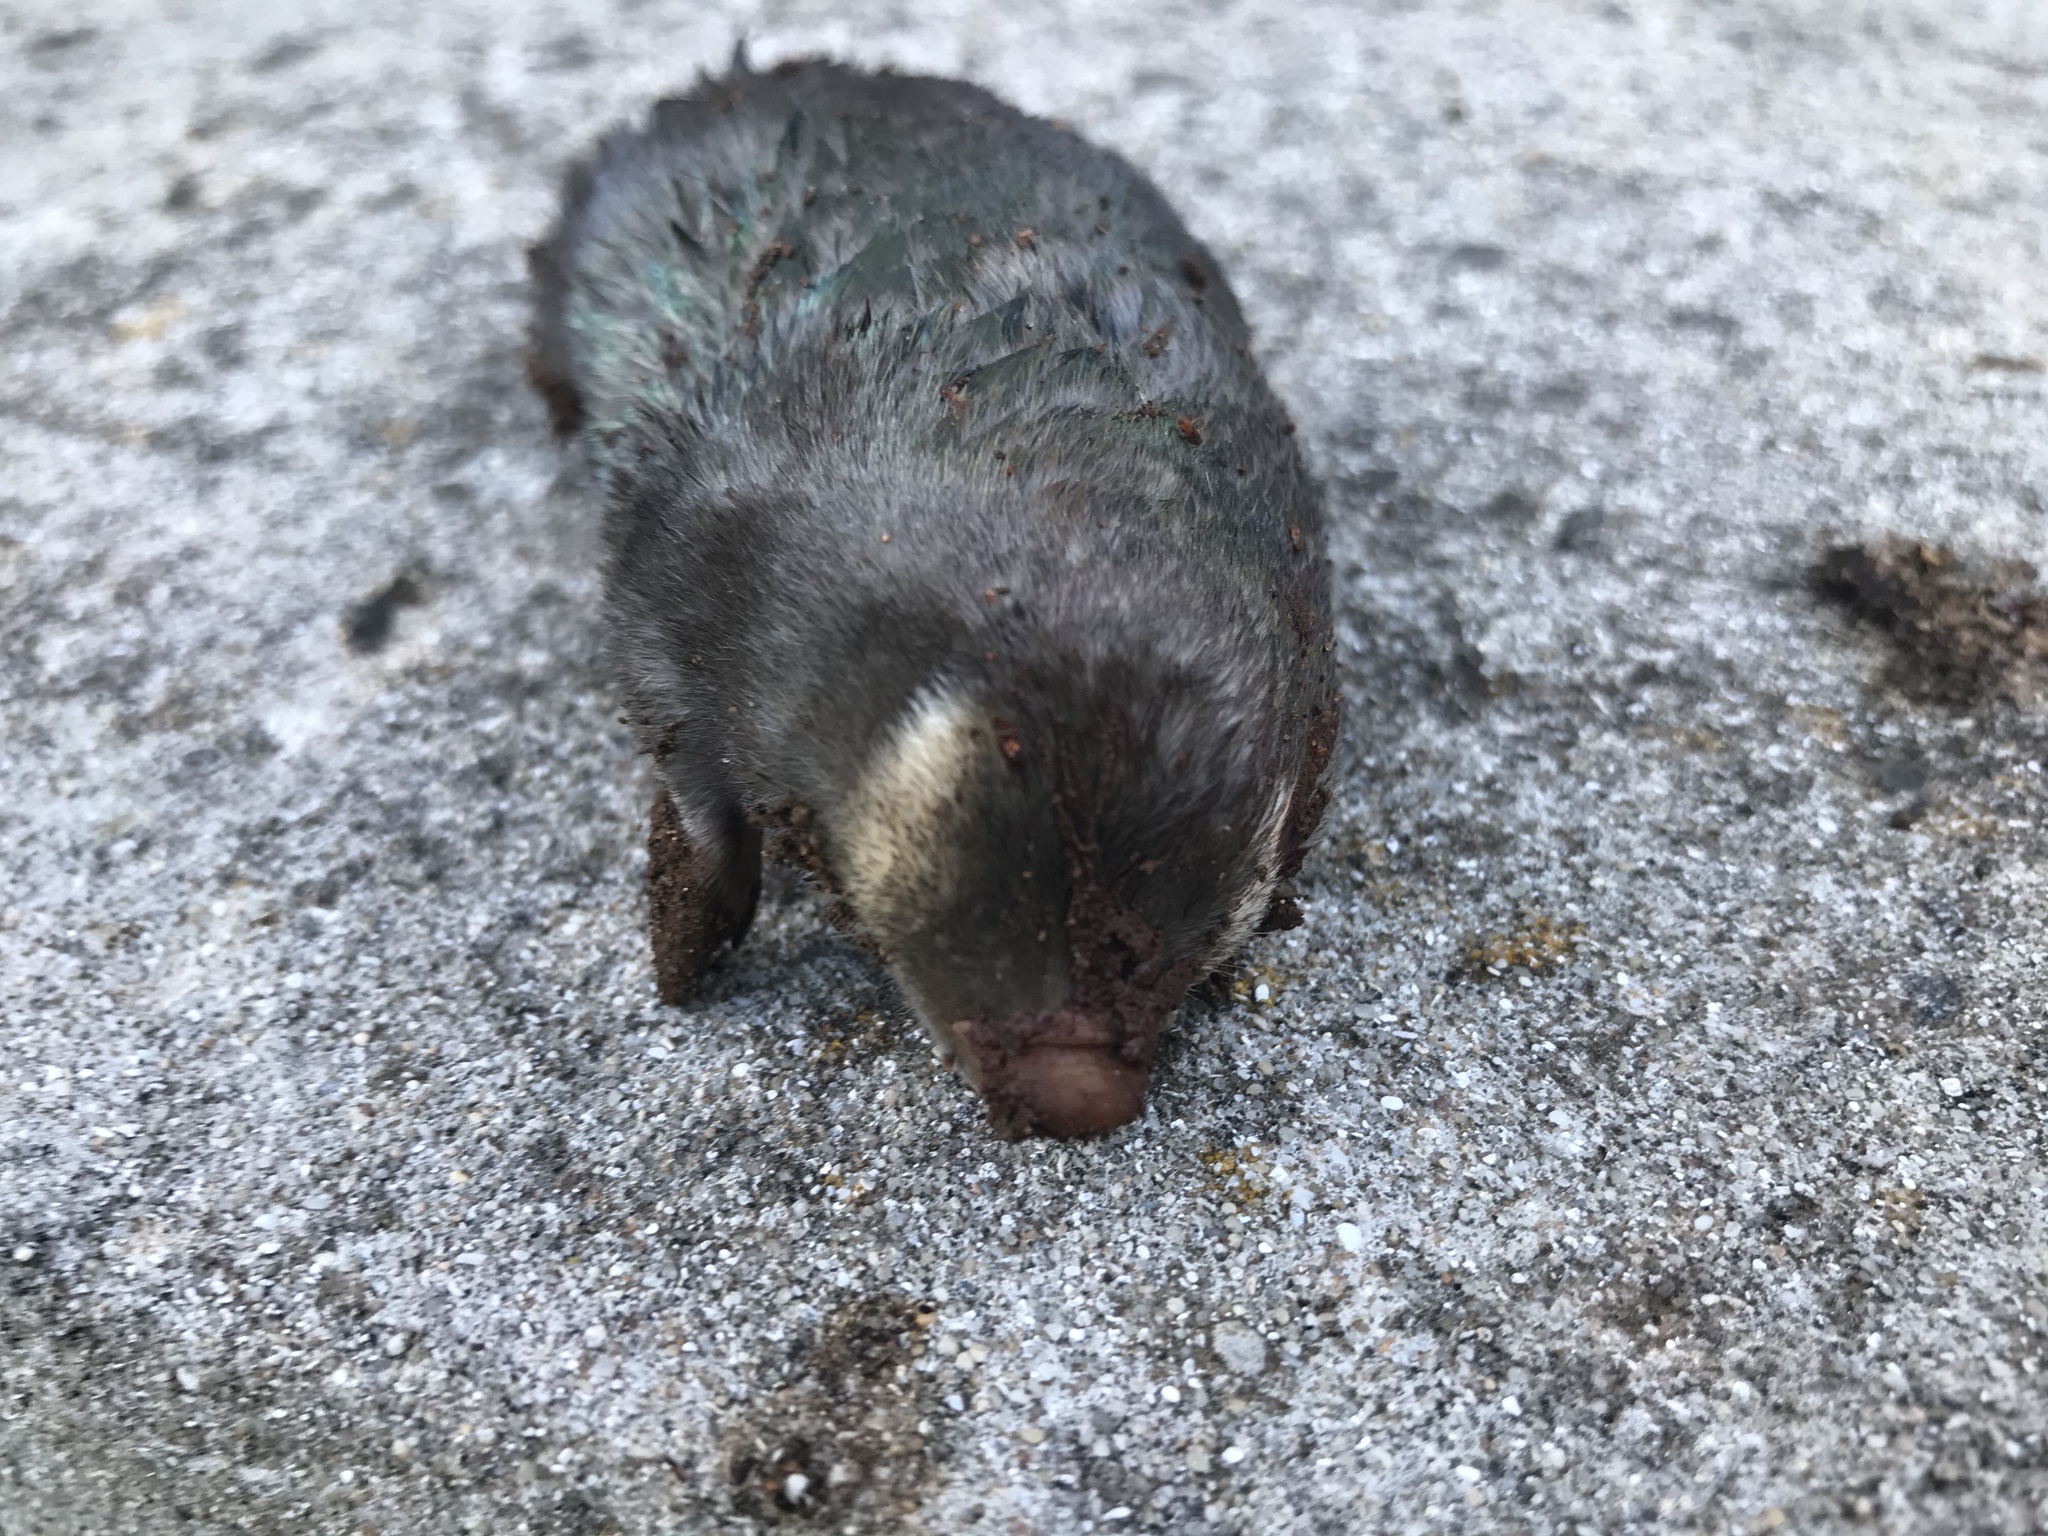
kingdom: Animalia
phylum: Chordata
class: Mammalia
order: Afrosoricida
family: Chrysochloridae
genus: Chrysochloris
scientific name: Chrysochloris asiatica
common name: Cape golden mole
